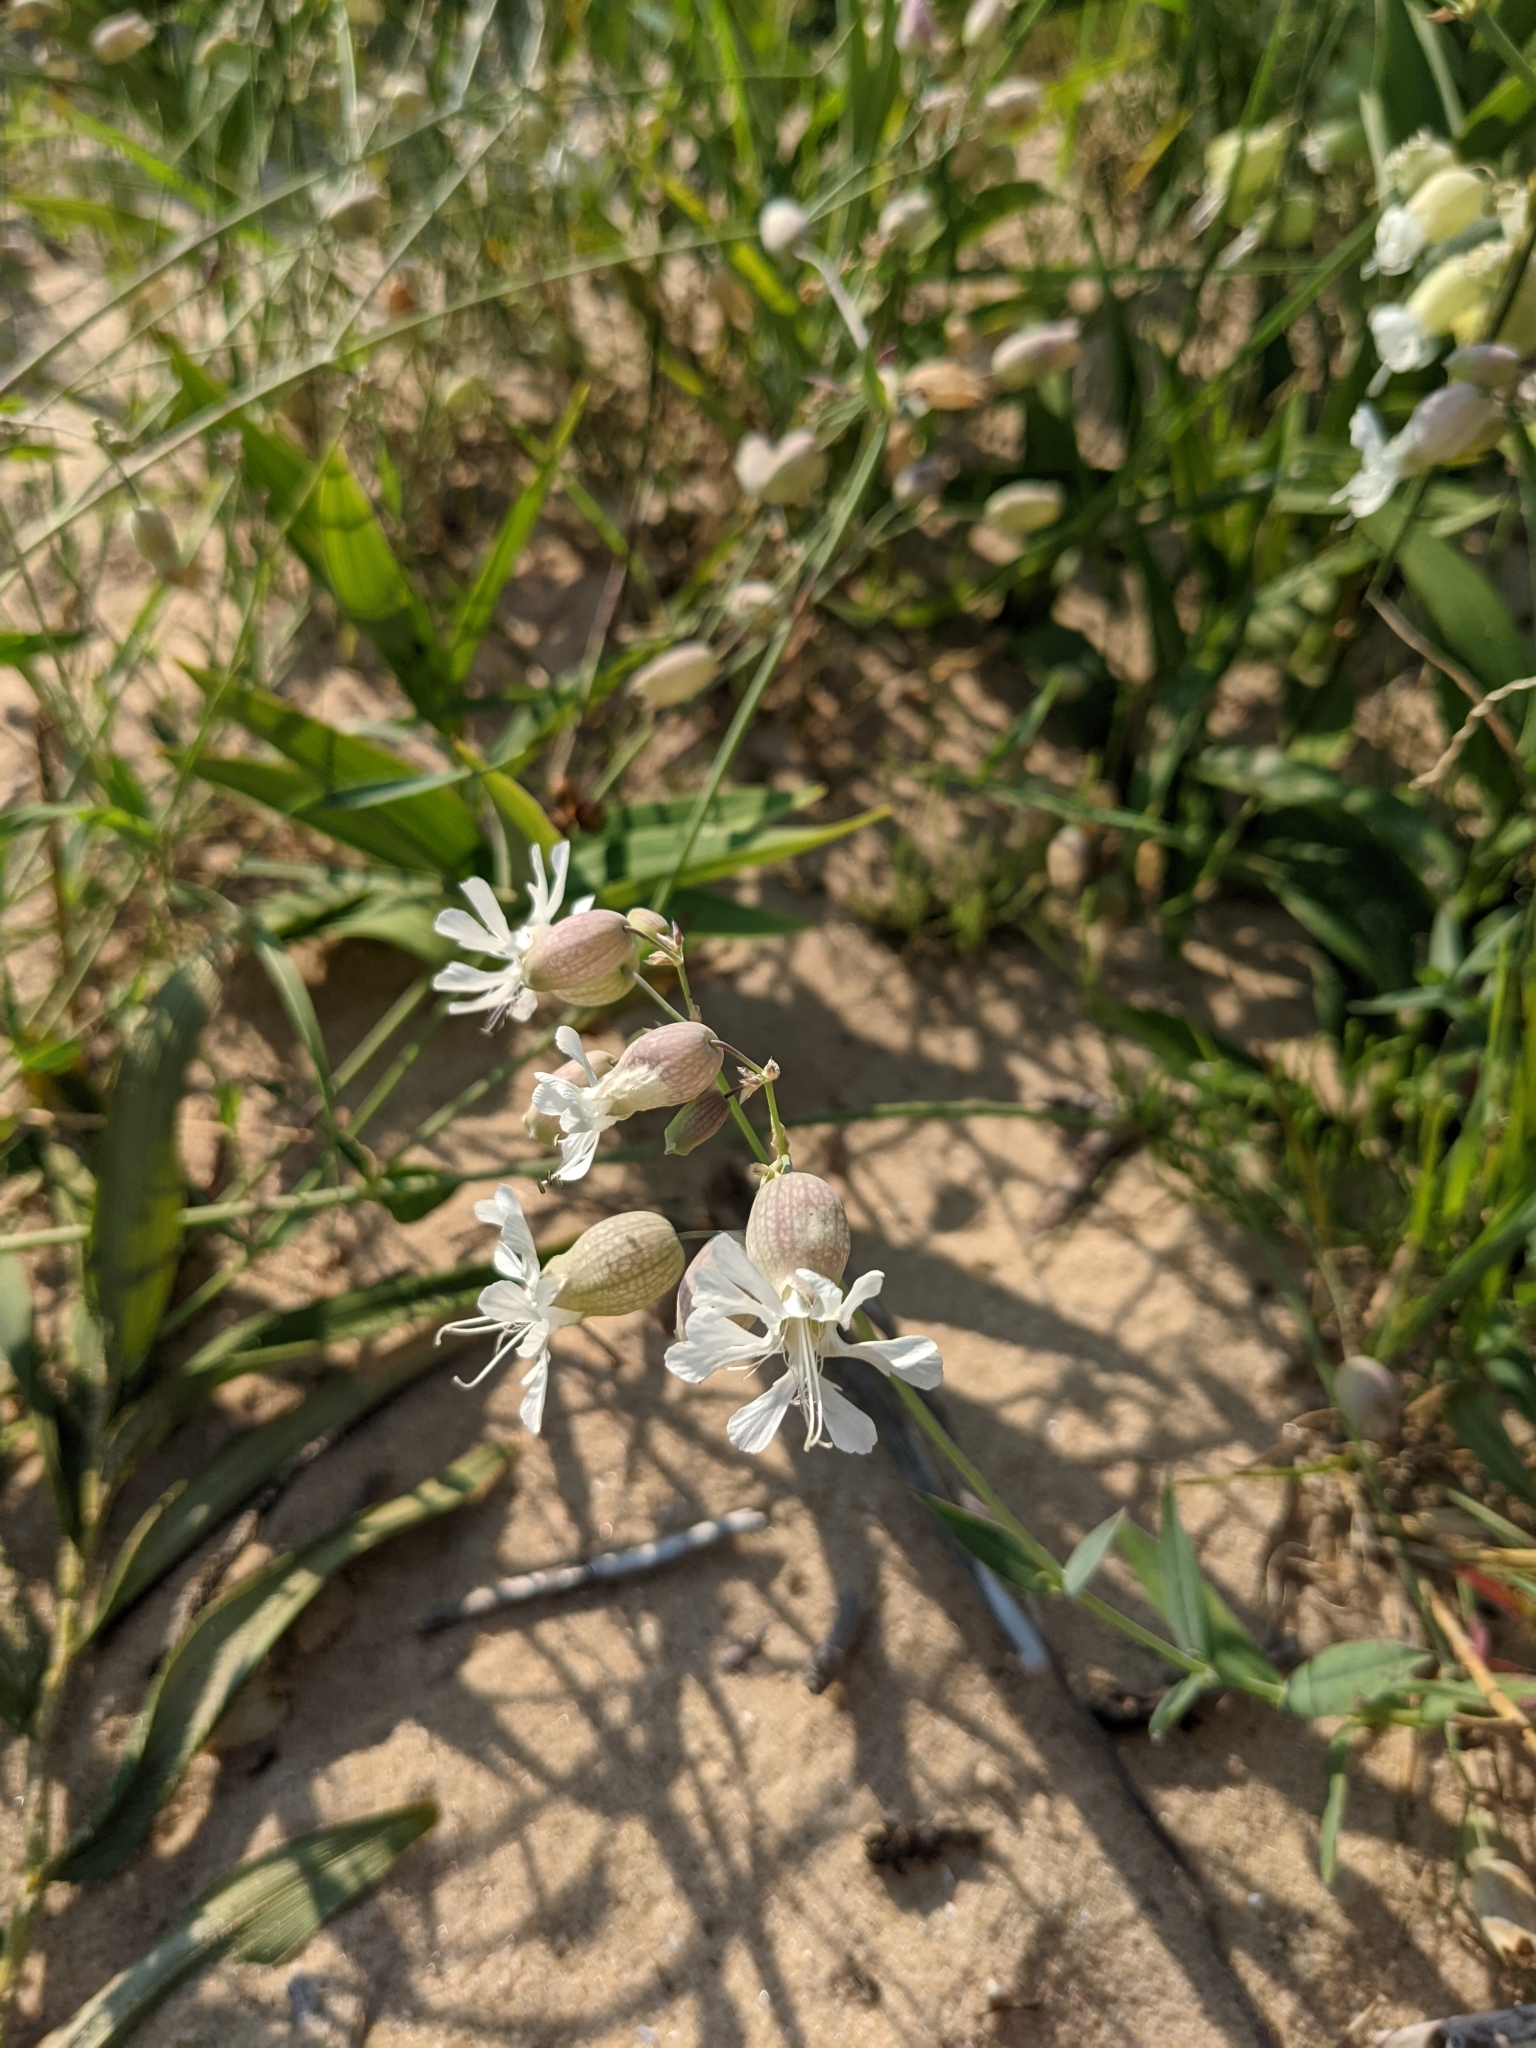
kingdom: Plantae
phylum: Tracheophyta
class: Magnoliopsida
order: Caryophyllales
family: Caryophyllaceae
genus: Silene
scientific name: Silene vulgaris
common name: Bladder campion
